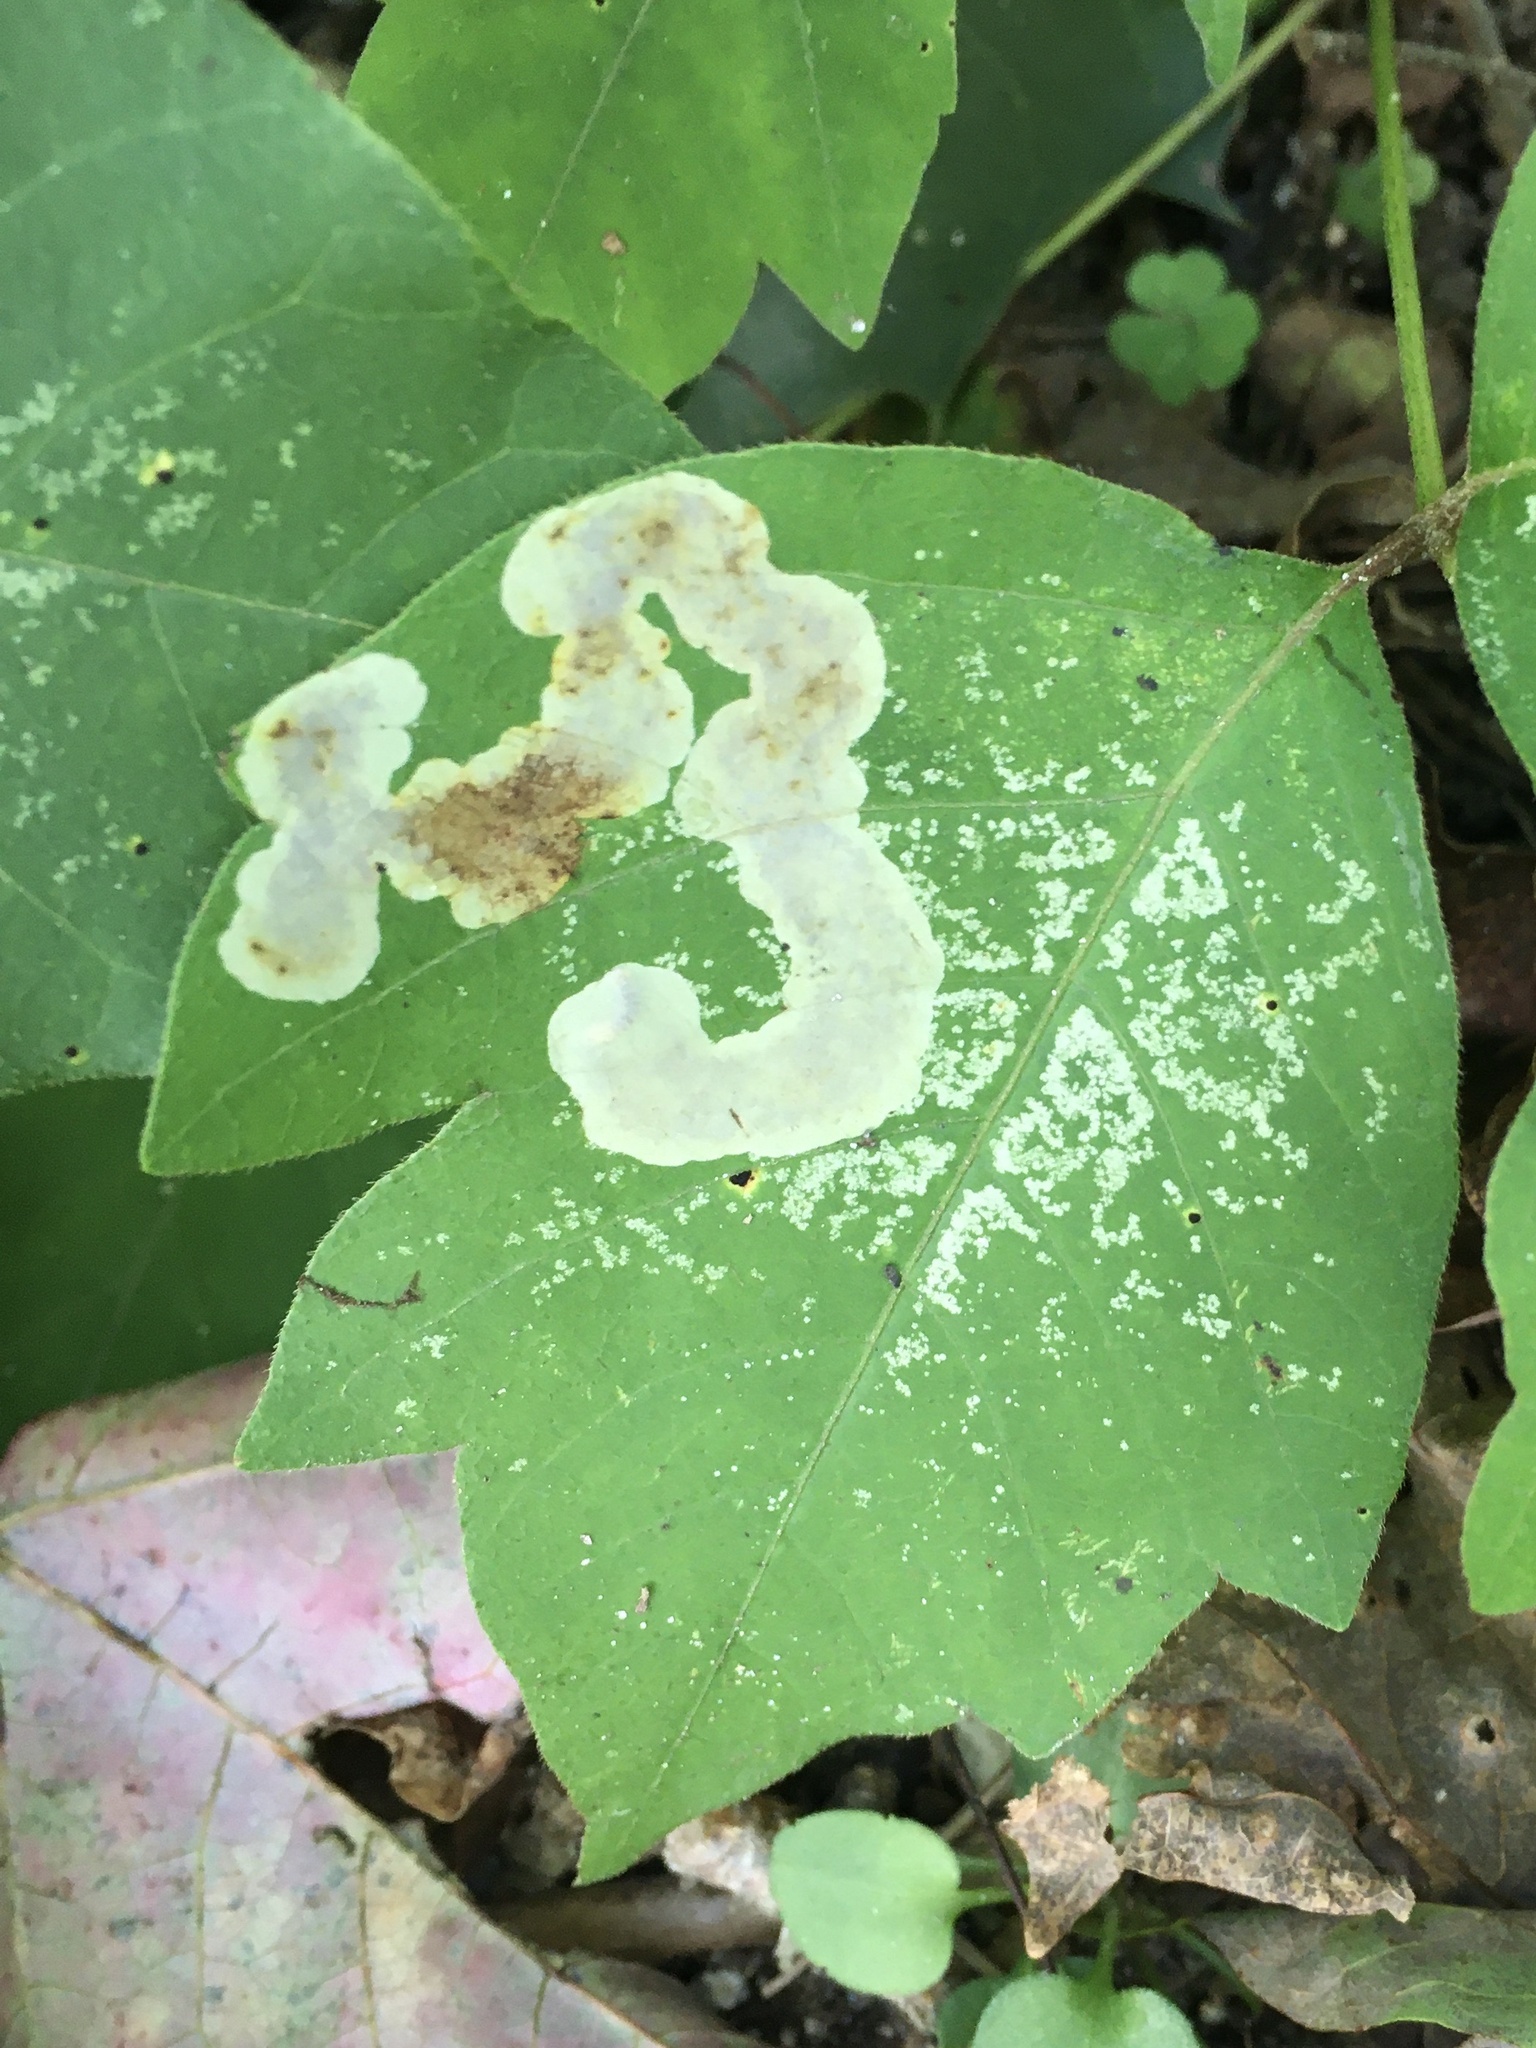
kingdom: Animalia
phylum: Arthropoda
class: Insecta
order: Lepidoptera
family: Gracillariidae
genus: Cameraria
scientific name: Cameraria guttifinitella
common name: Poison ivy leaf-miner moth
